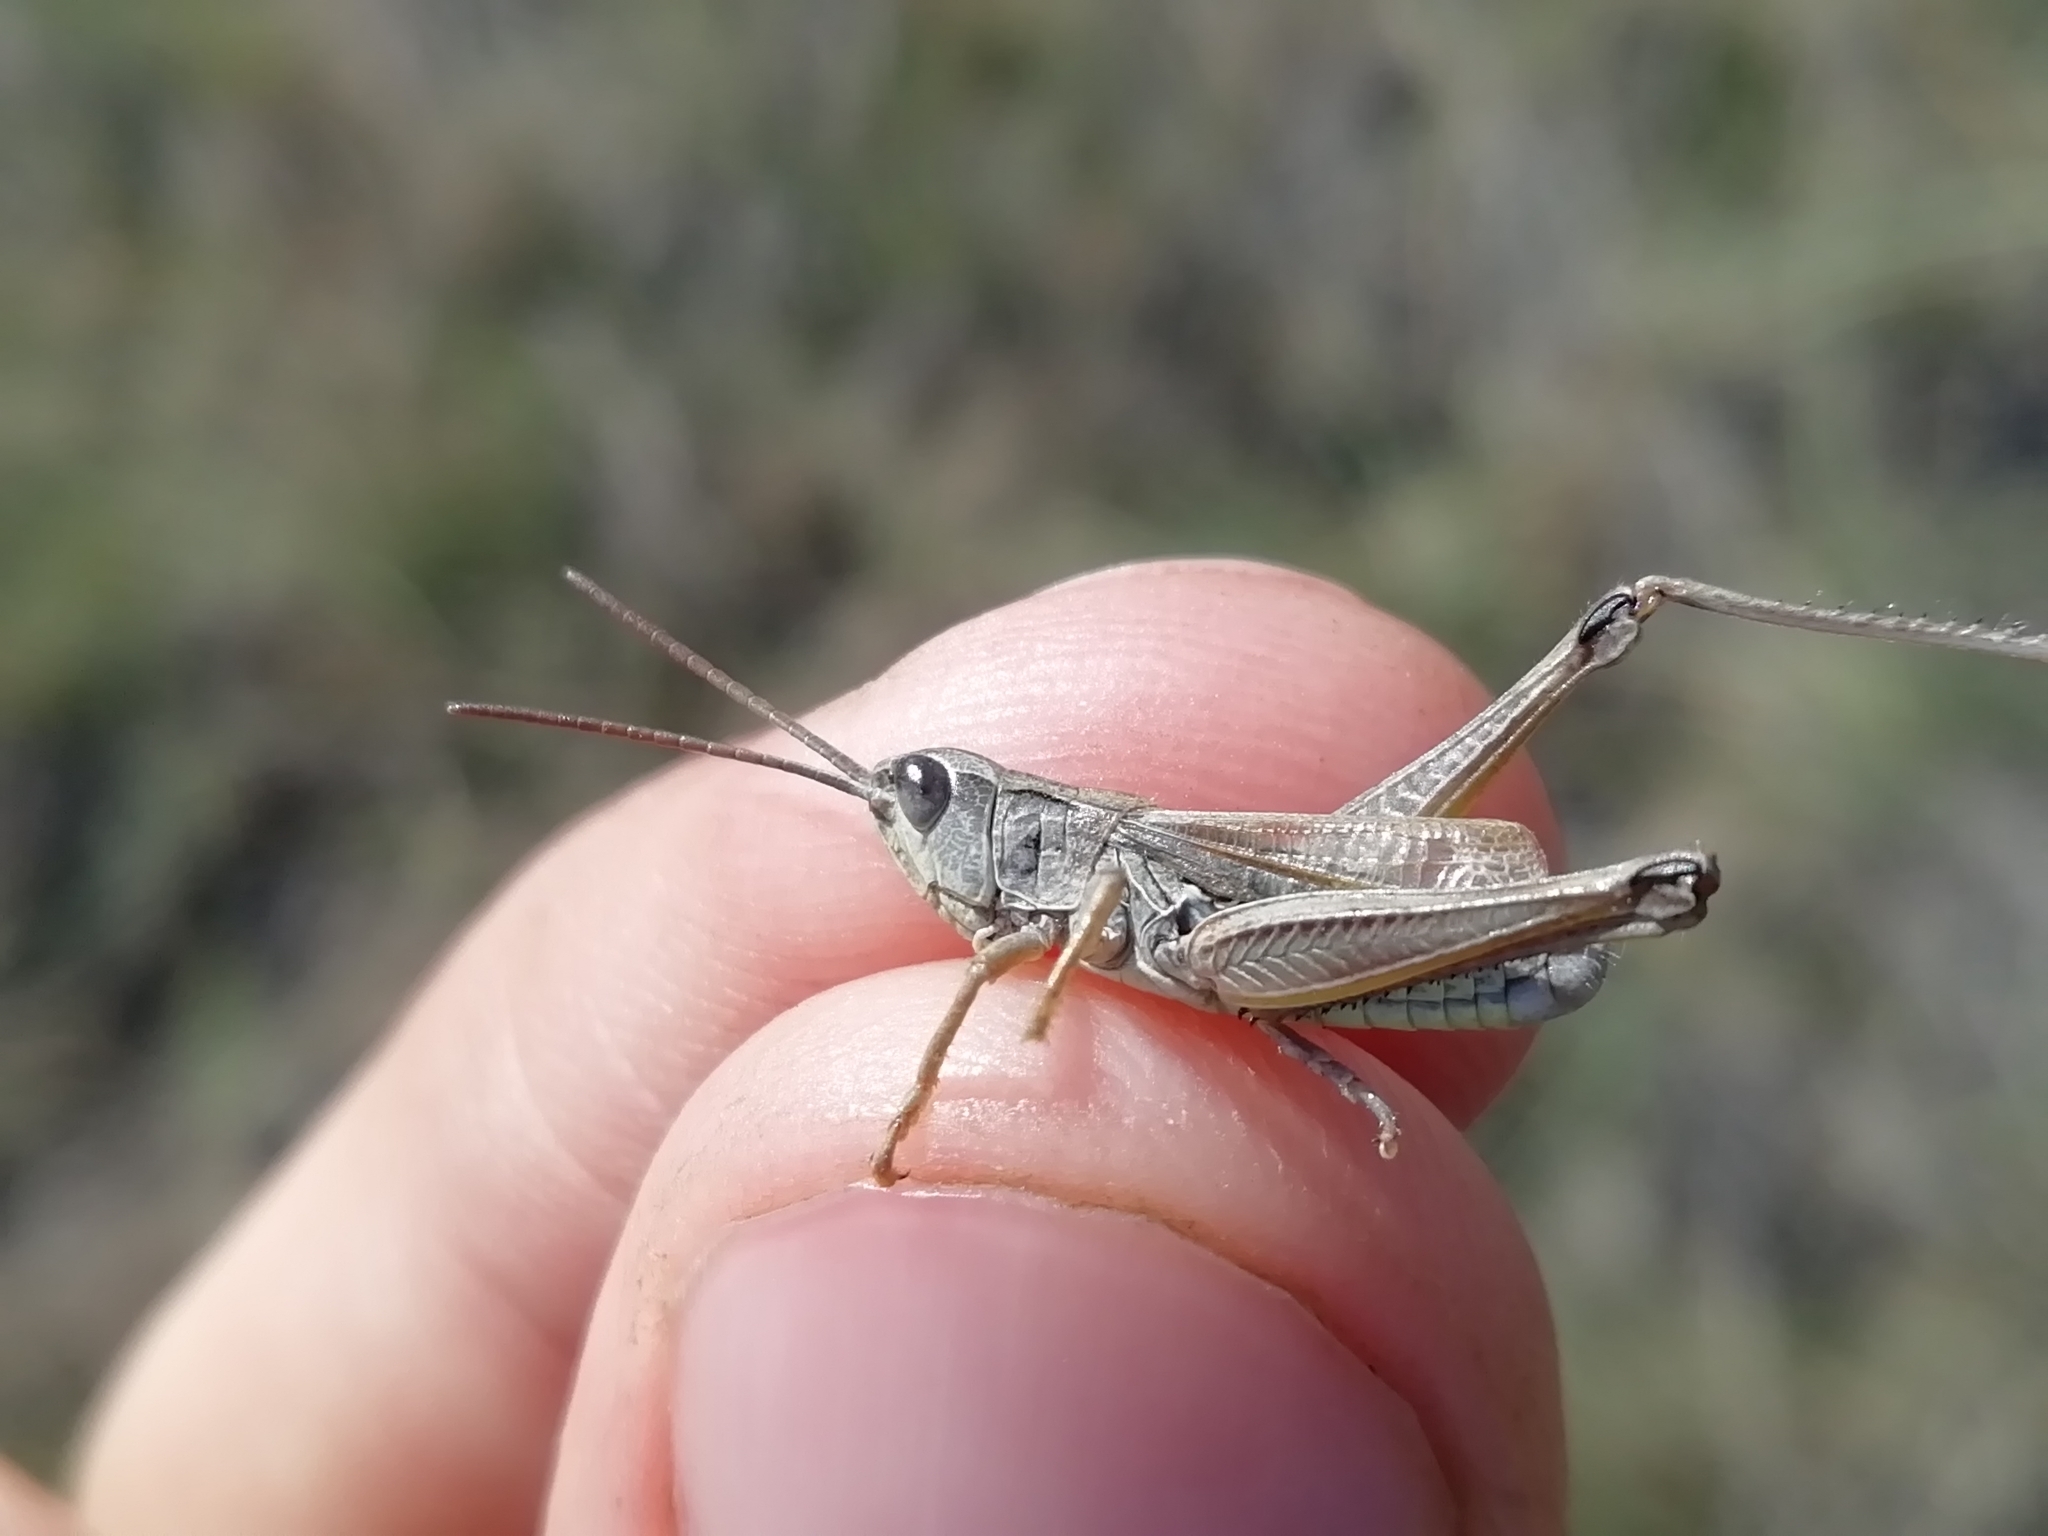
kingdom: Animalia
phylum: Arthropoda
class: Insecta
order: Orthoptera
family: Acrididae
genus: Chorthippus
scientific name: Chorthippus fallax
